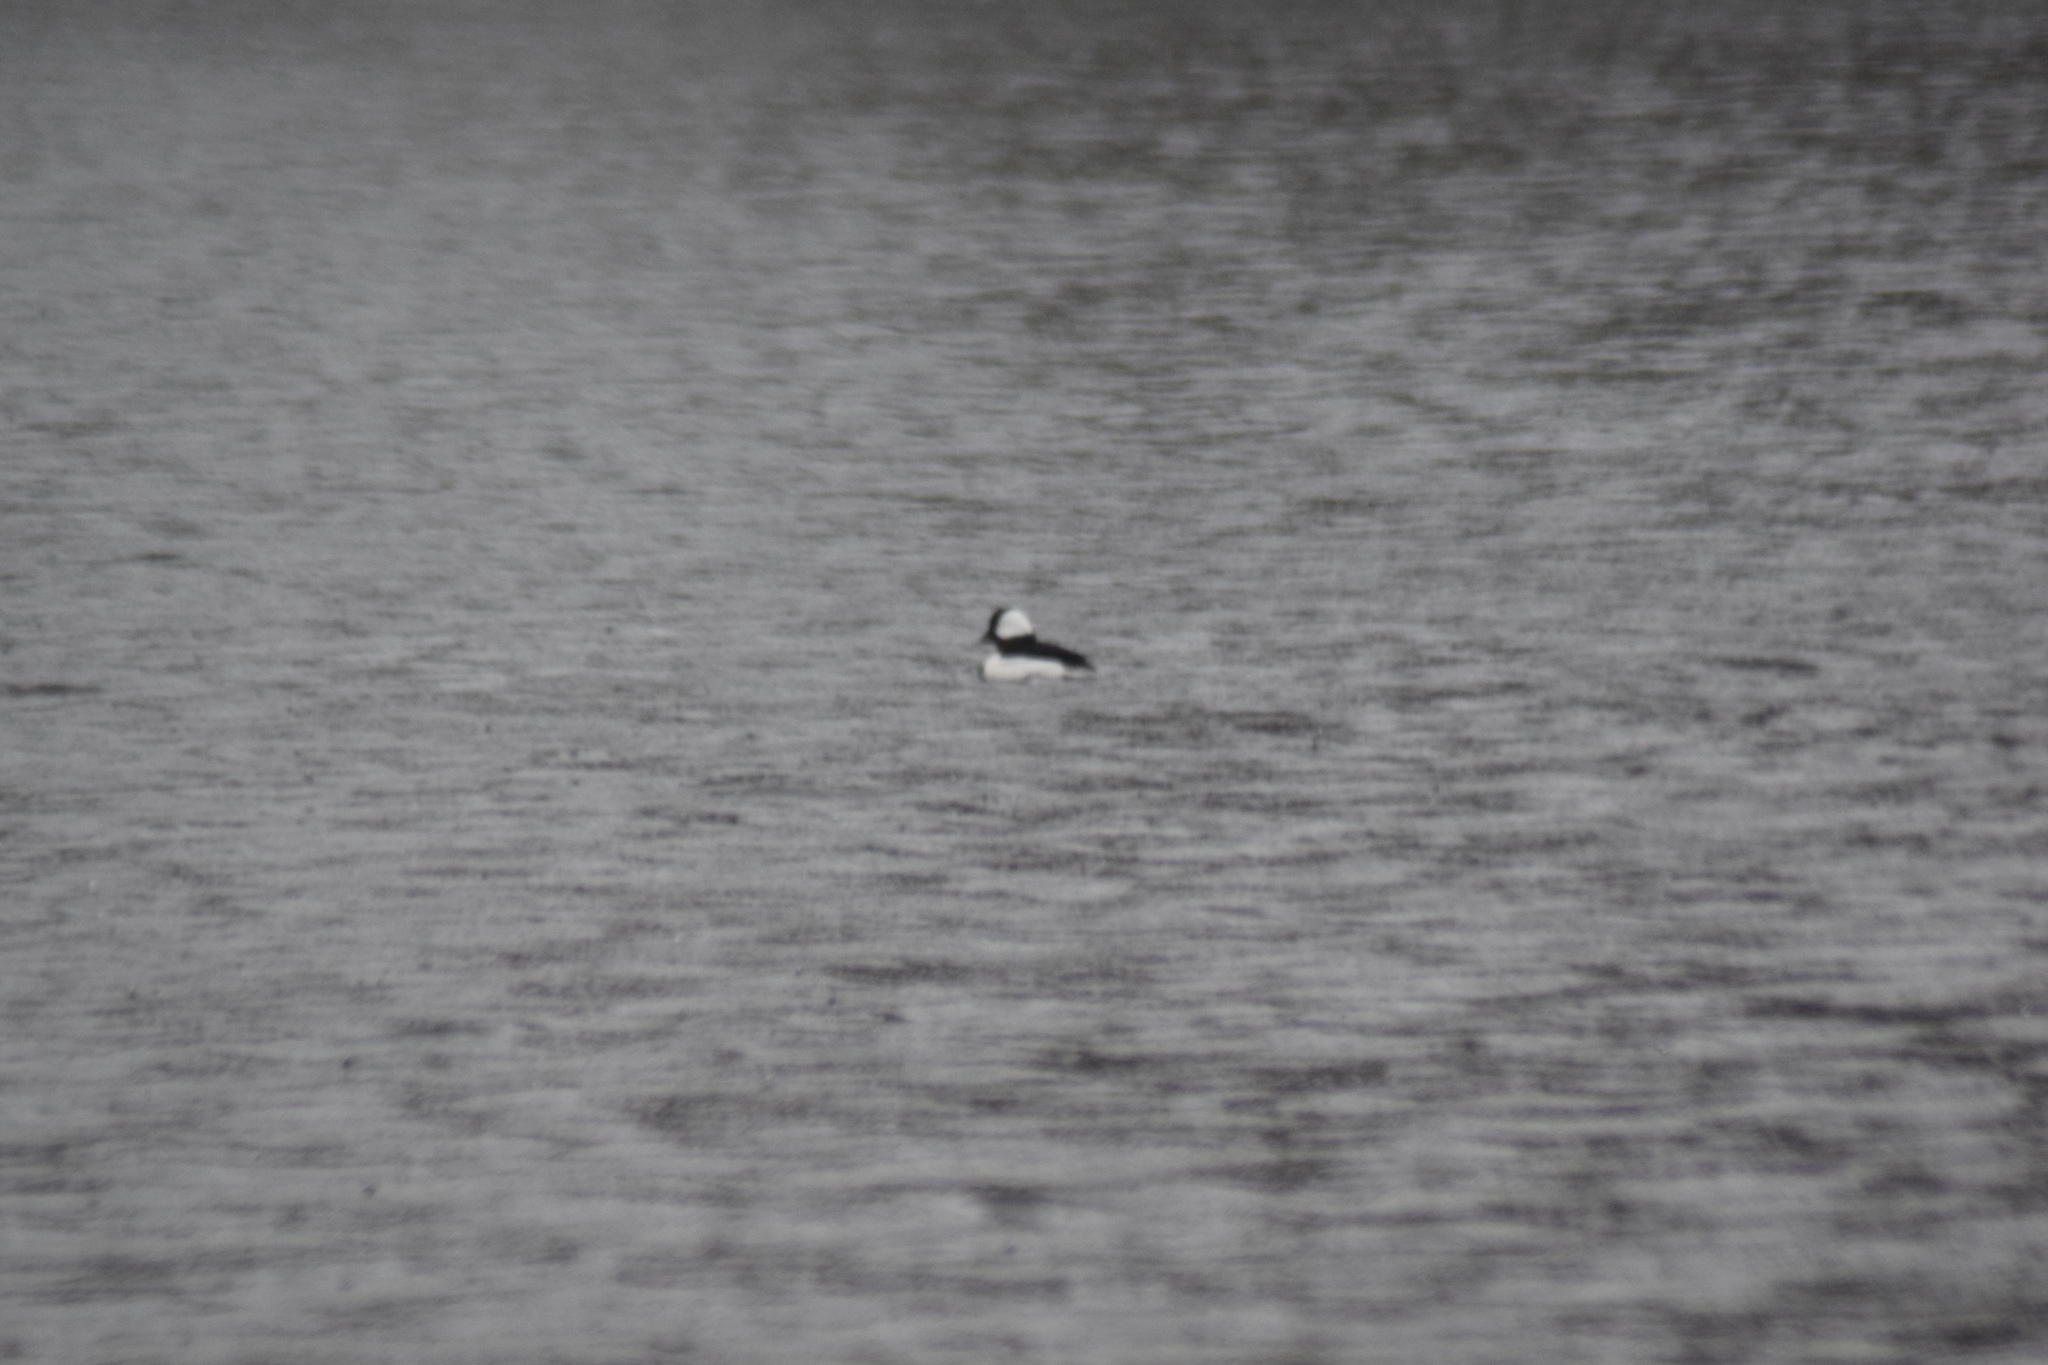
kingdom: Animalia
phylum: Chordata
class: Aves
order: Anseriformes
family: Anatidae
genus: Bucephala
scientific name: Bucephala albeola
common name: Bufflehead
